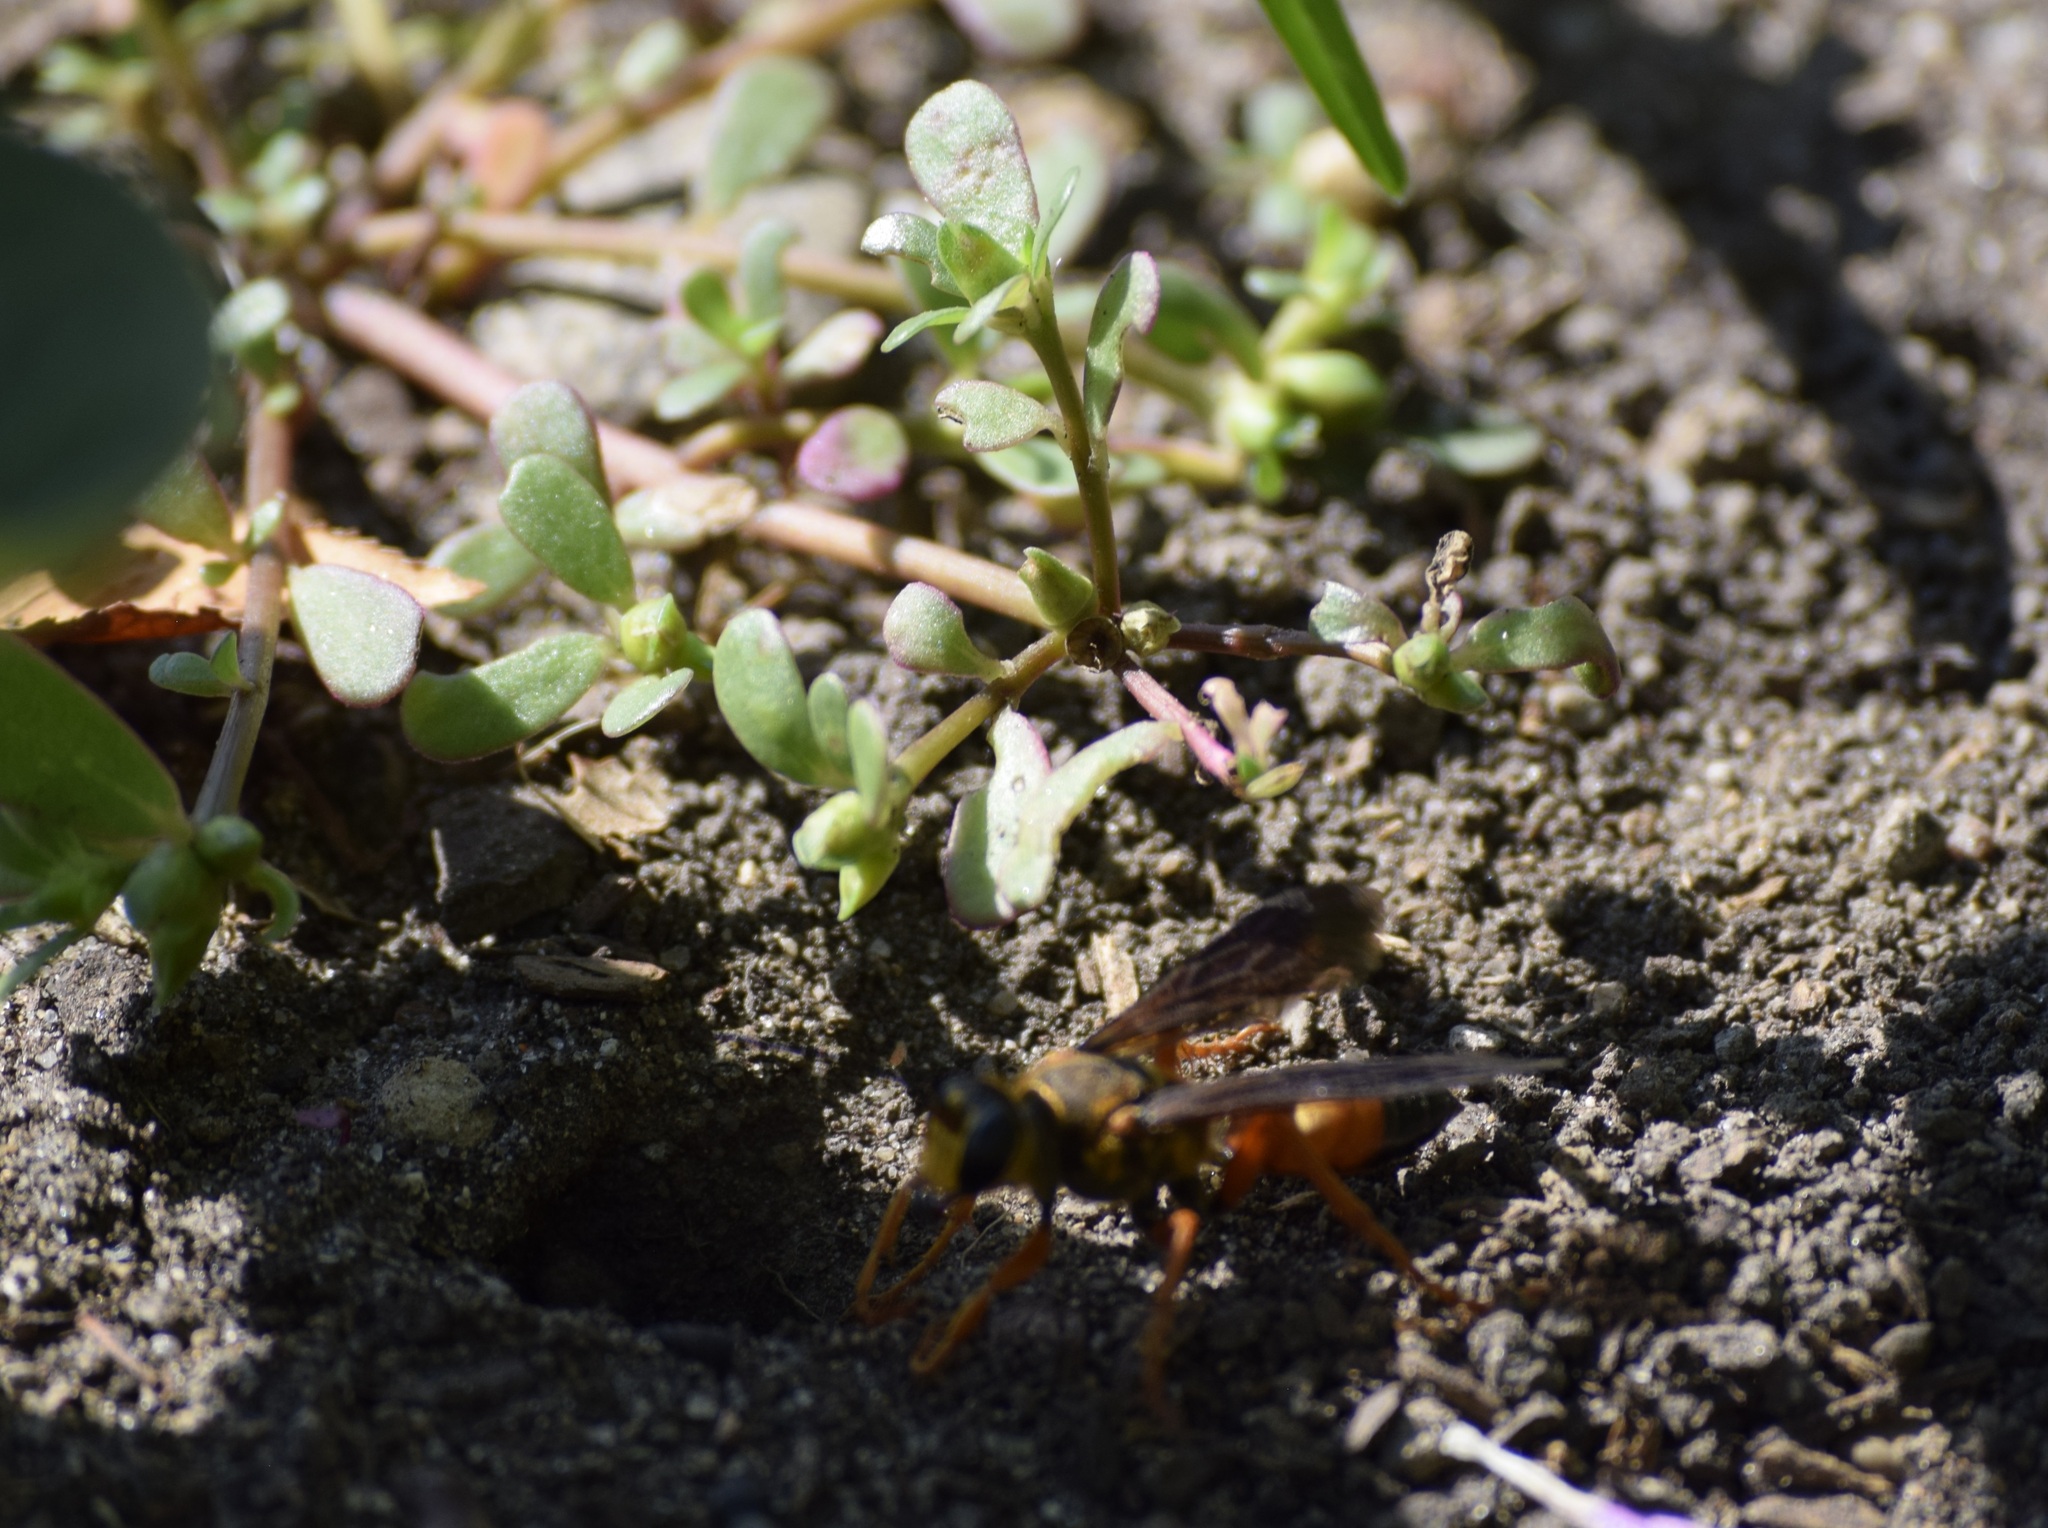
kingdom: Animalia
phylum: Arthropoda
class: Insecta
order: Hymenoptera
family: Sphecidae
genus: Sphex
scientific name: Sphex ichneumoneus
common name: Great golden digger wasp
